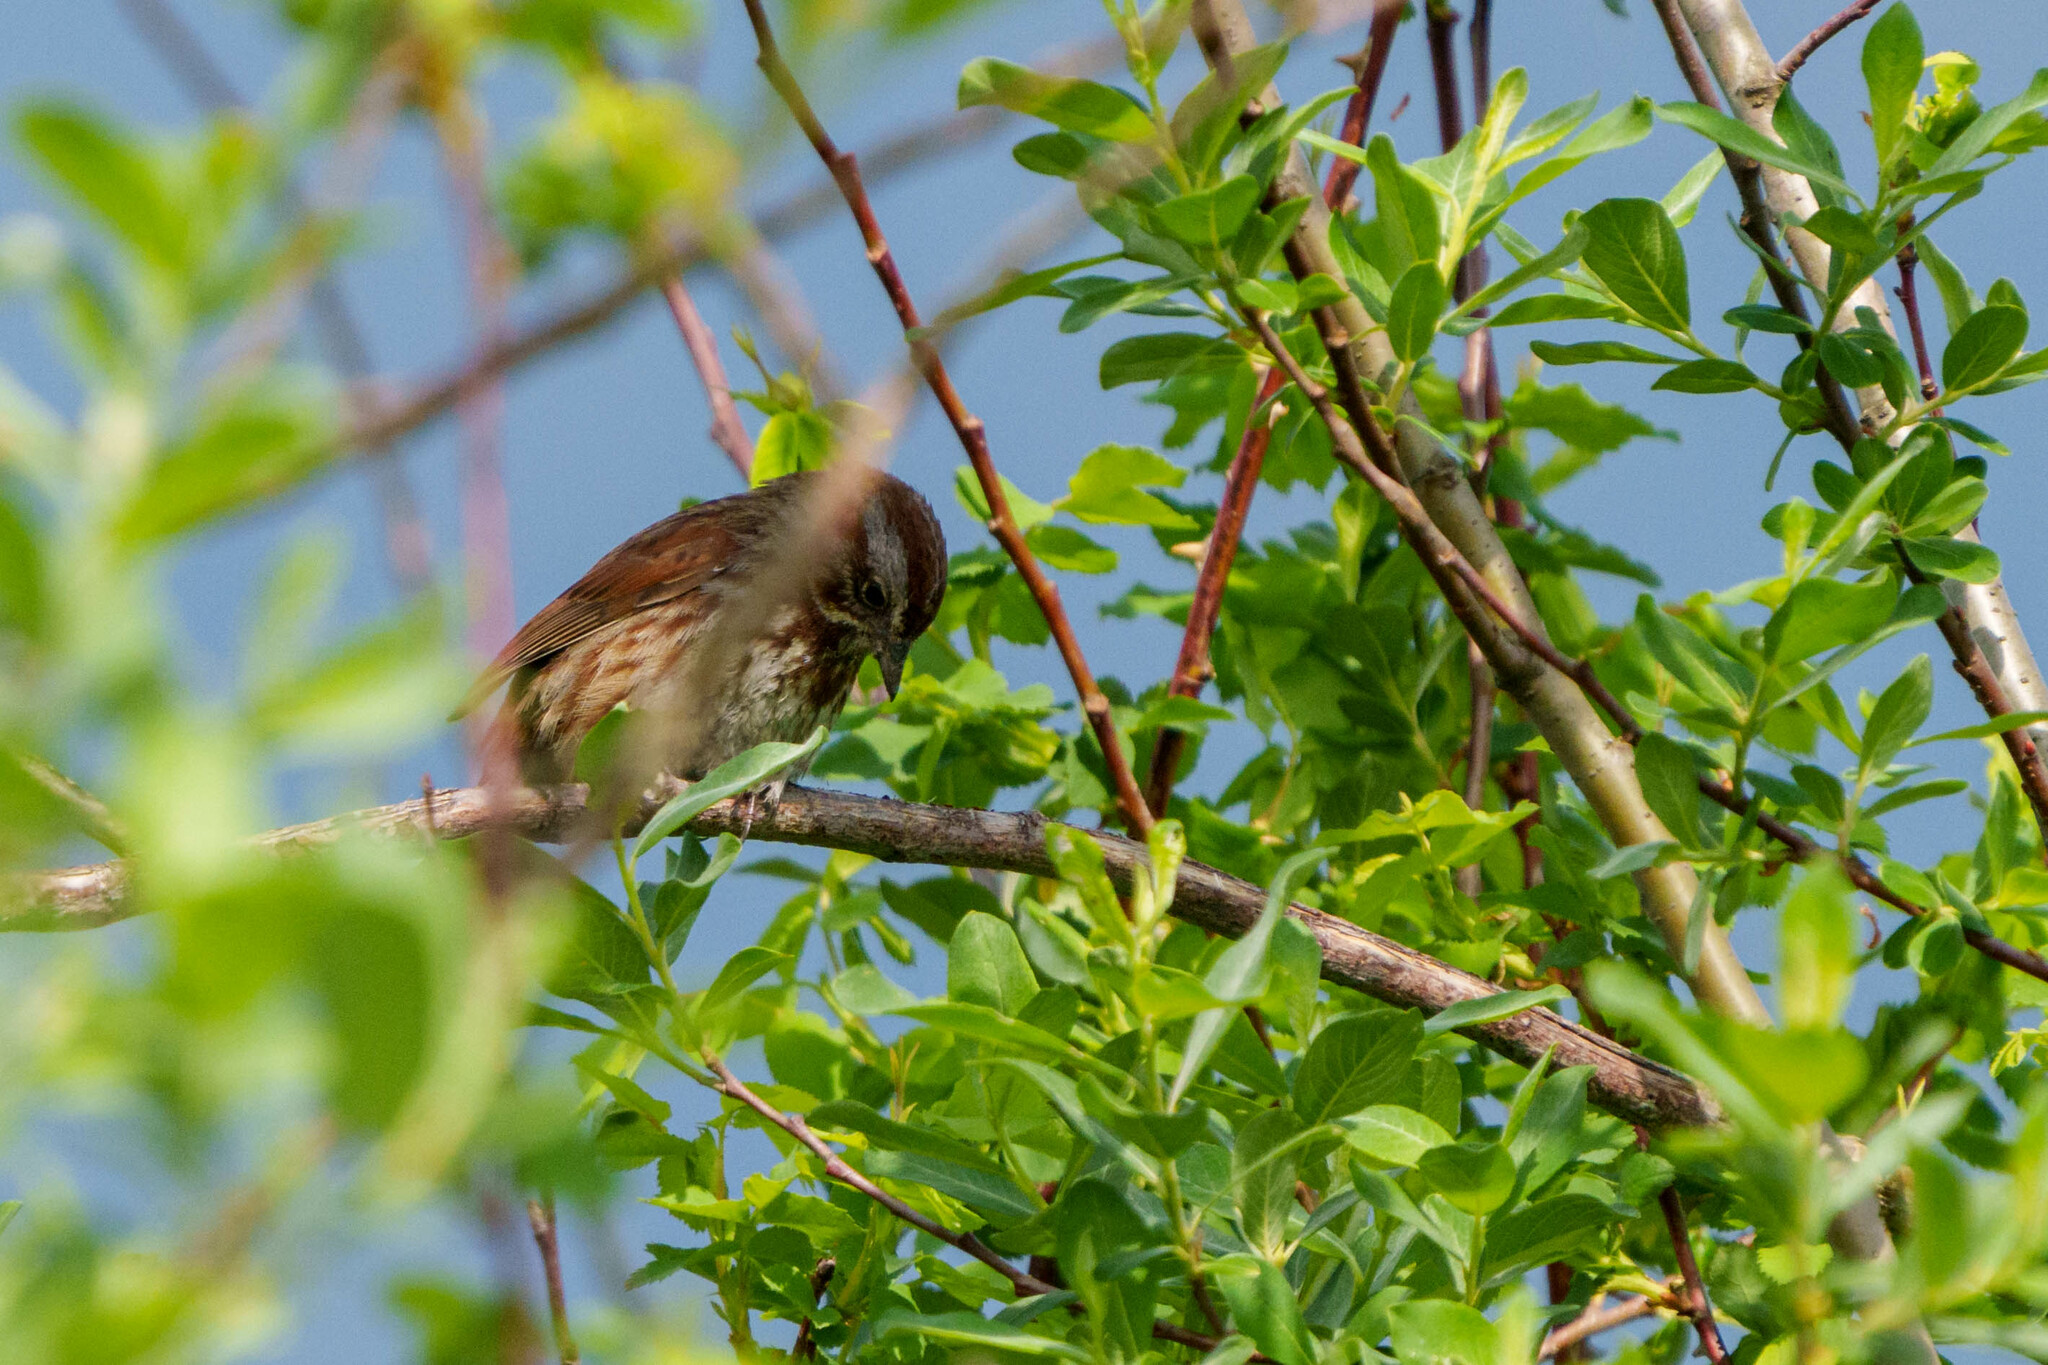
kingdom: Animalia
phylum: Chordata
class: Aves
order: Passeriformes
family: Passerellidae
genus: Melospiza
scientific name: Melospiza melodia
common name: Song sparrow
